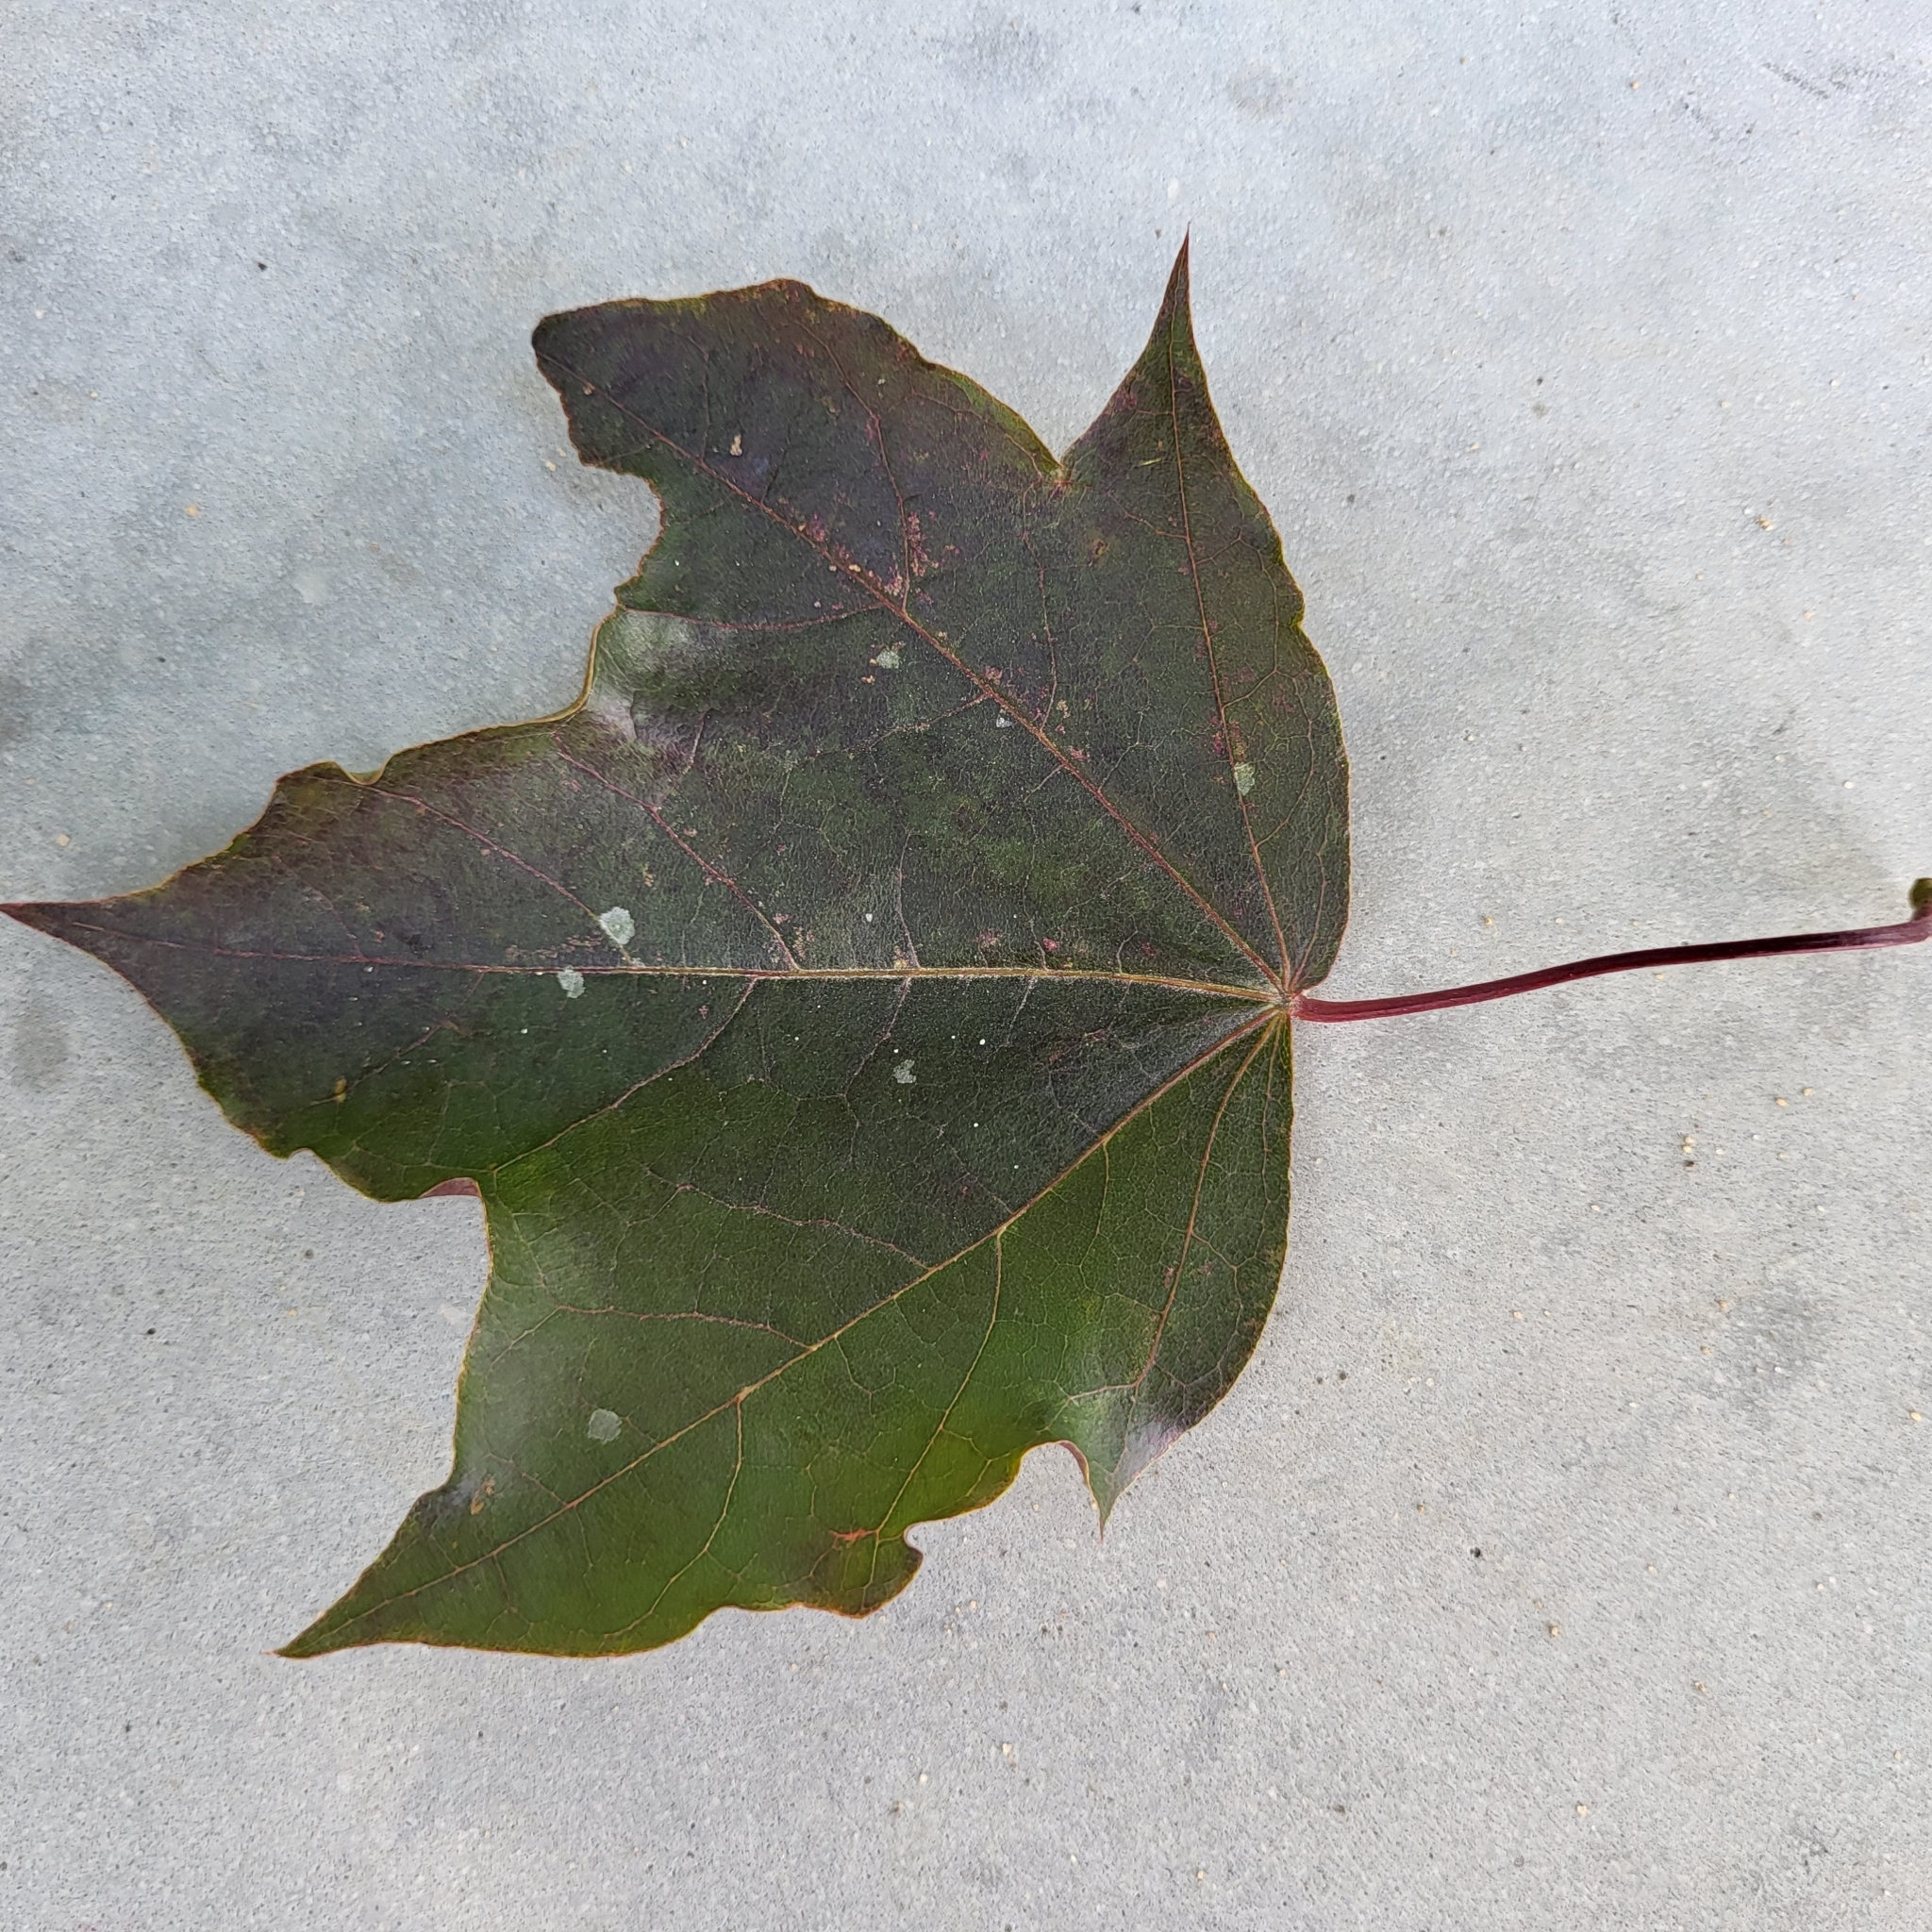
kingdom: Plantae
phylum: Tracheophyta
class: Magnoliopsida
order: Sapindales
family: Sapindaceae
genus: Acer
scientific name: Acer platanoides
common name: Norway maple
